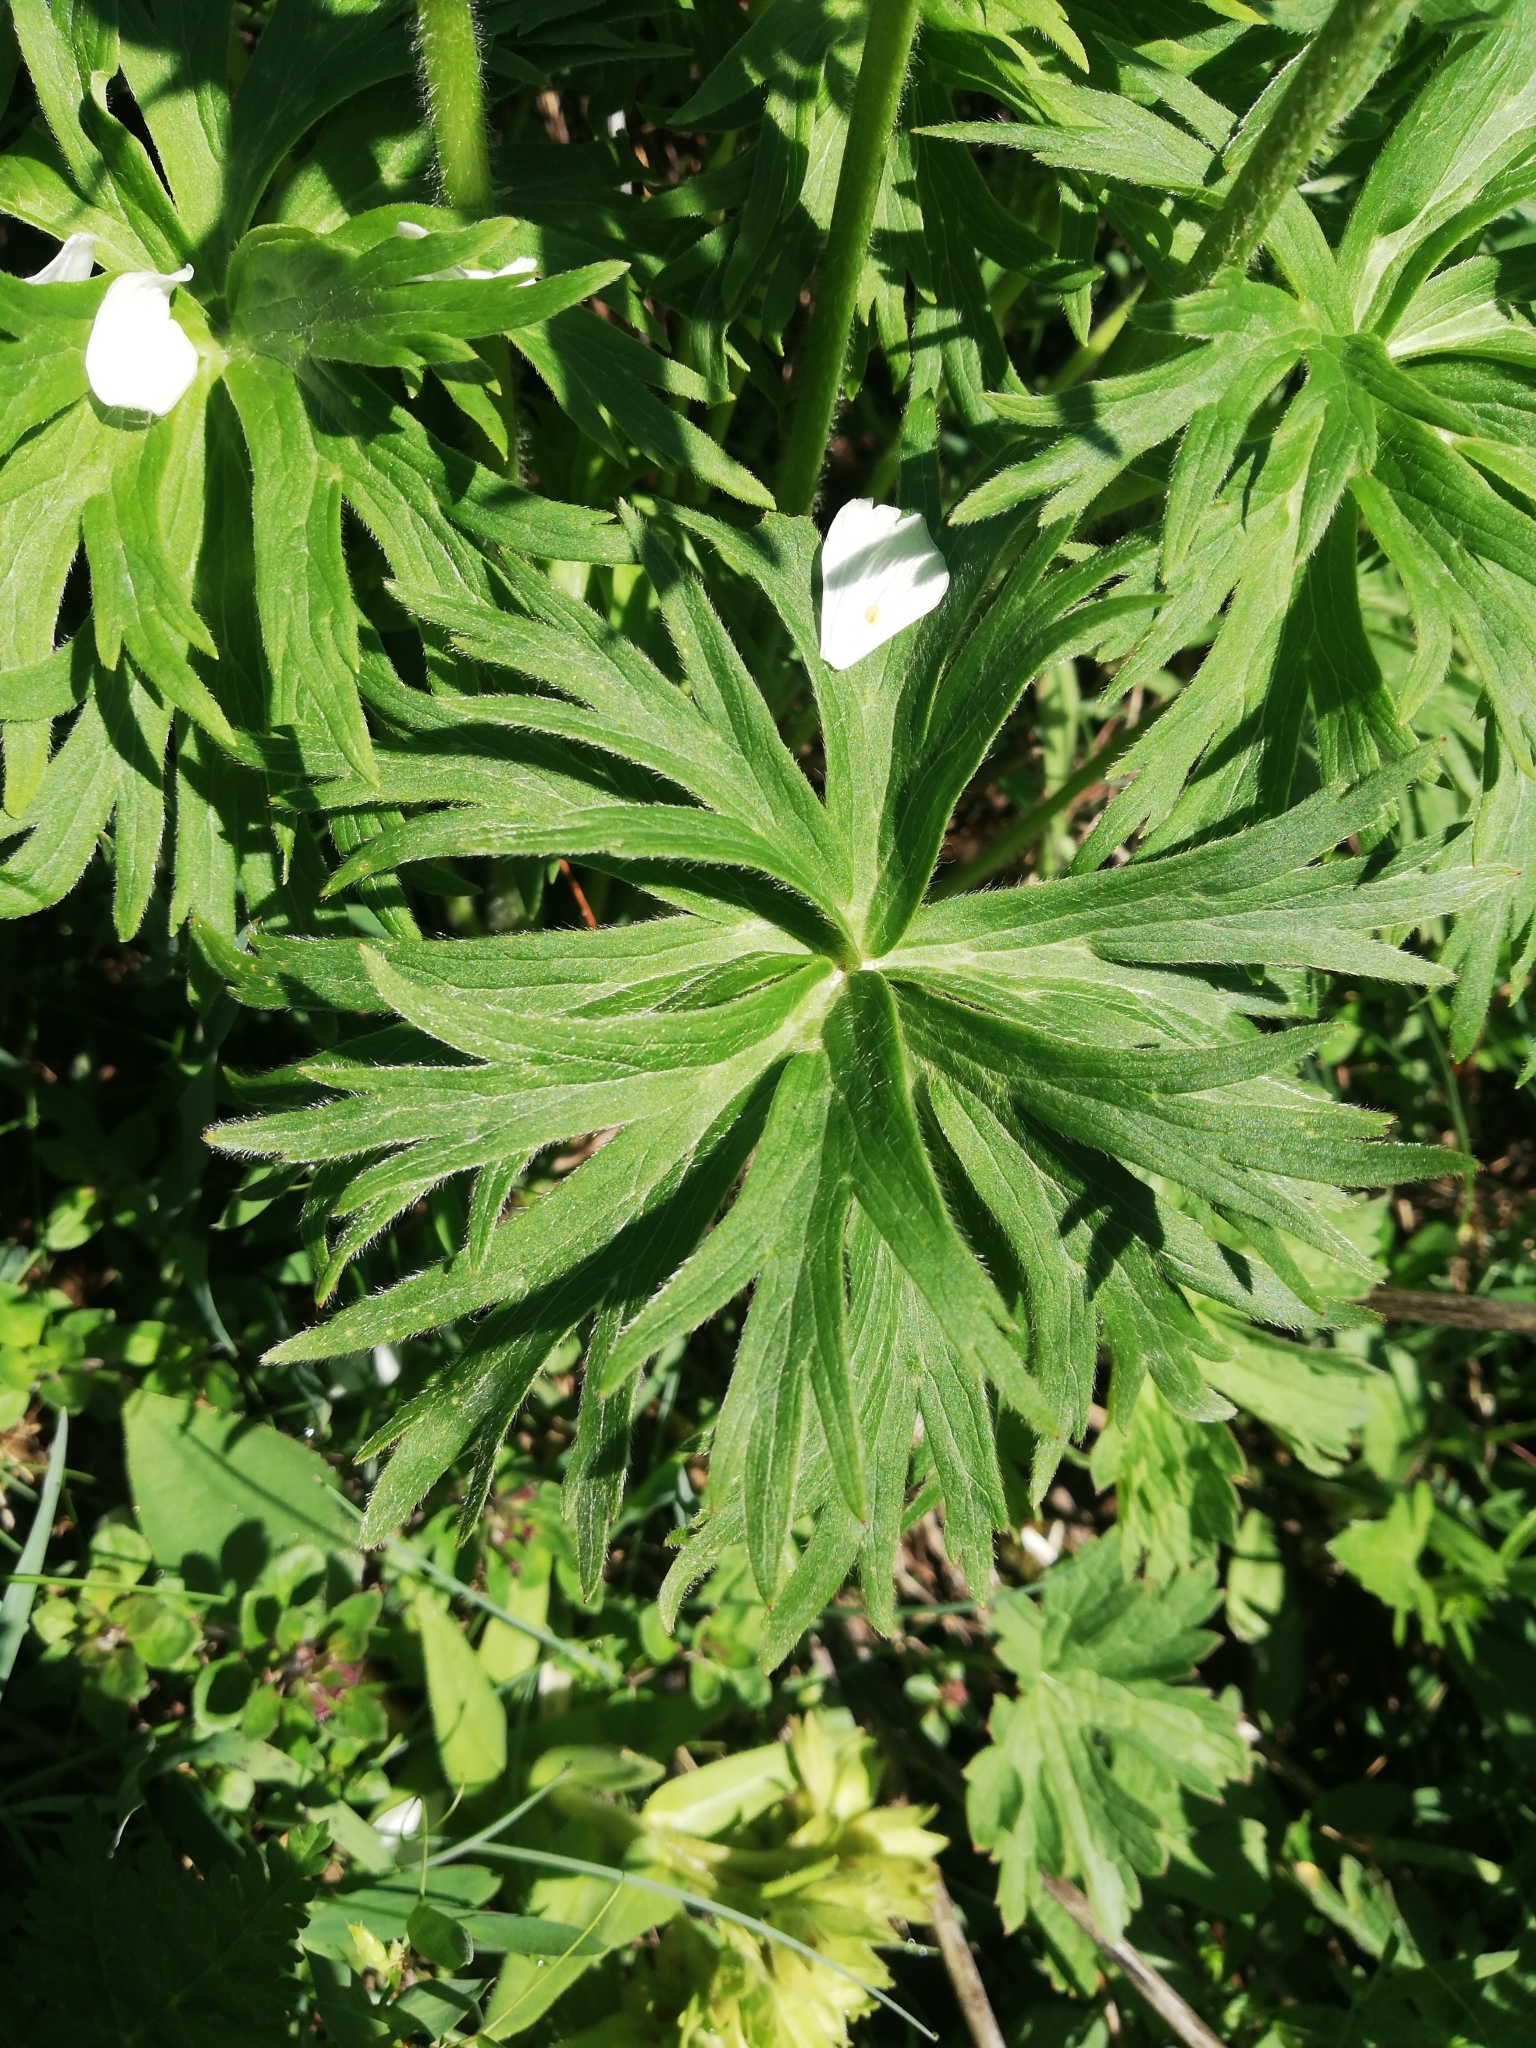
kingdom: Plantae
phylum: Tracheophyta
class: Magnoliopsida
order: Ranunculales
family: Ranunculaceae
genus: Anemonastrum
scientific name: Anemonastrum narcissiflorum
